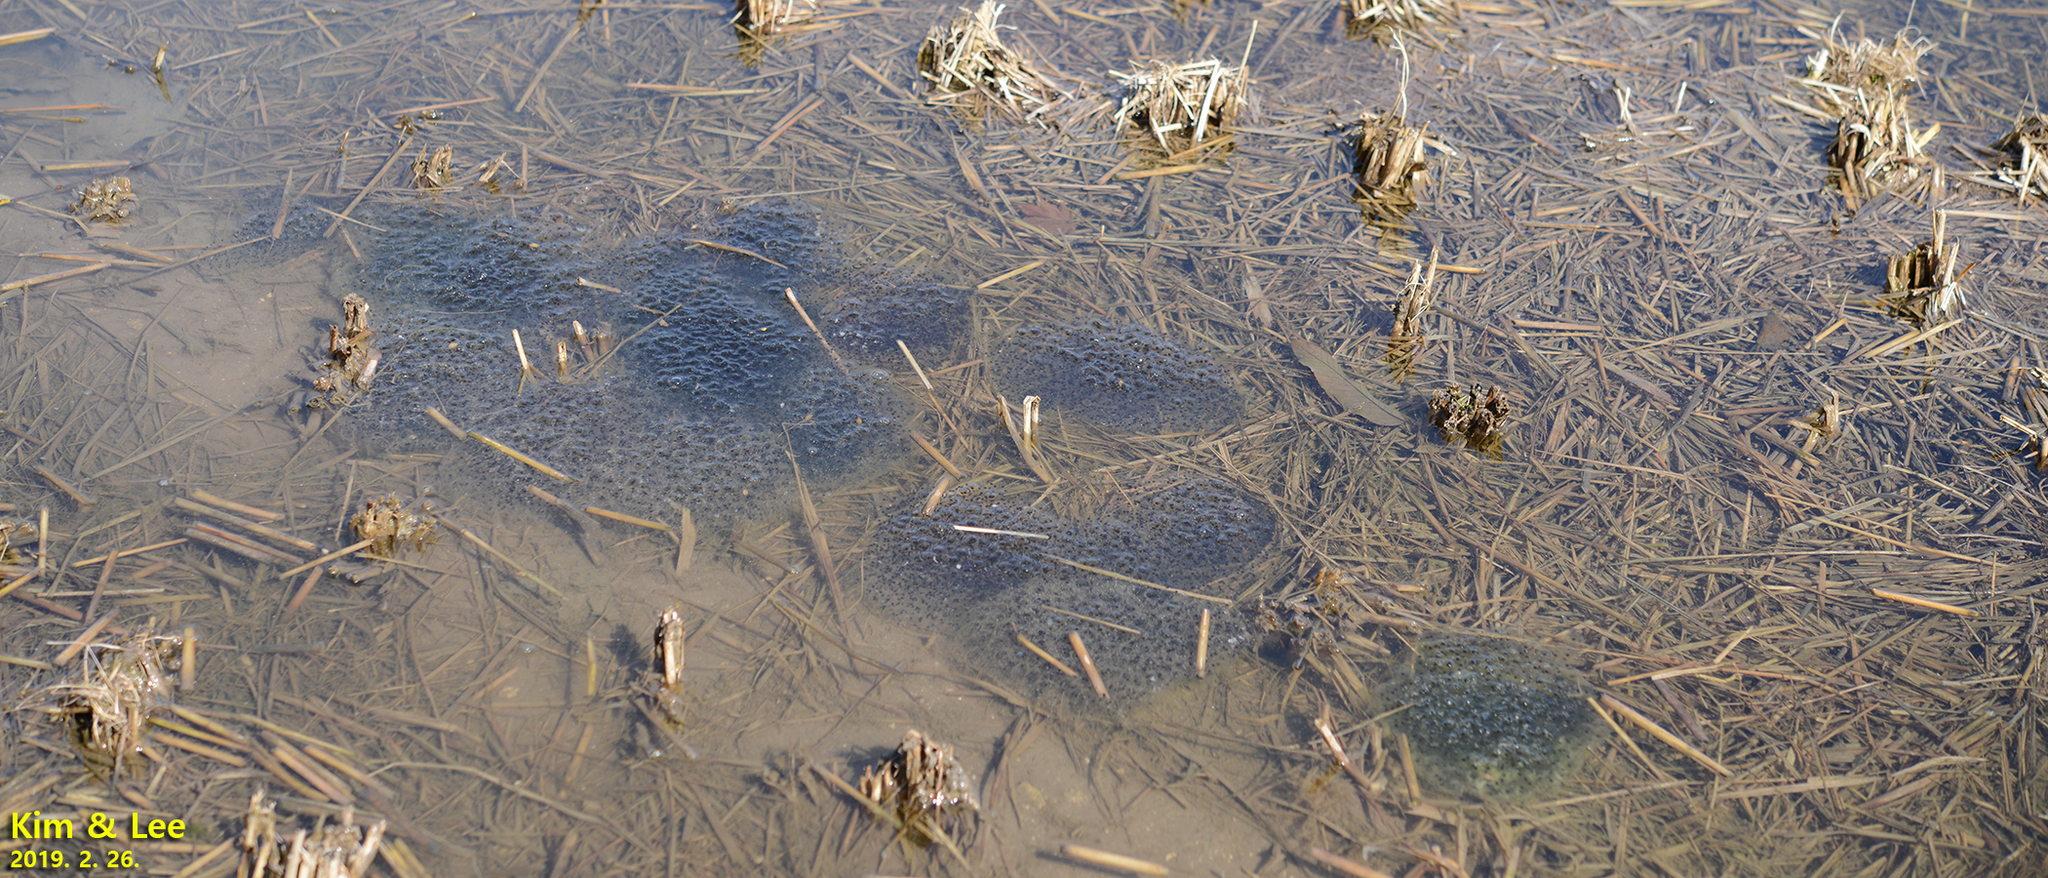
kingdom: Animalia
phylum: Chordata
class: Amphibia
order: Anura
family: Ranidae
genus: Rana
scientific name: Rana uenoi
